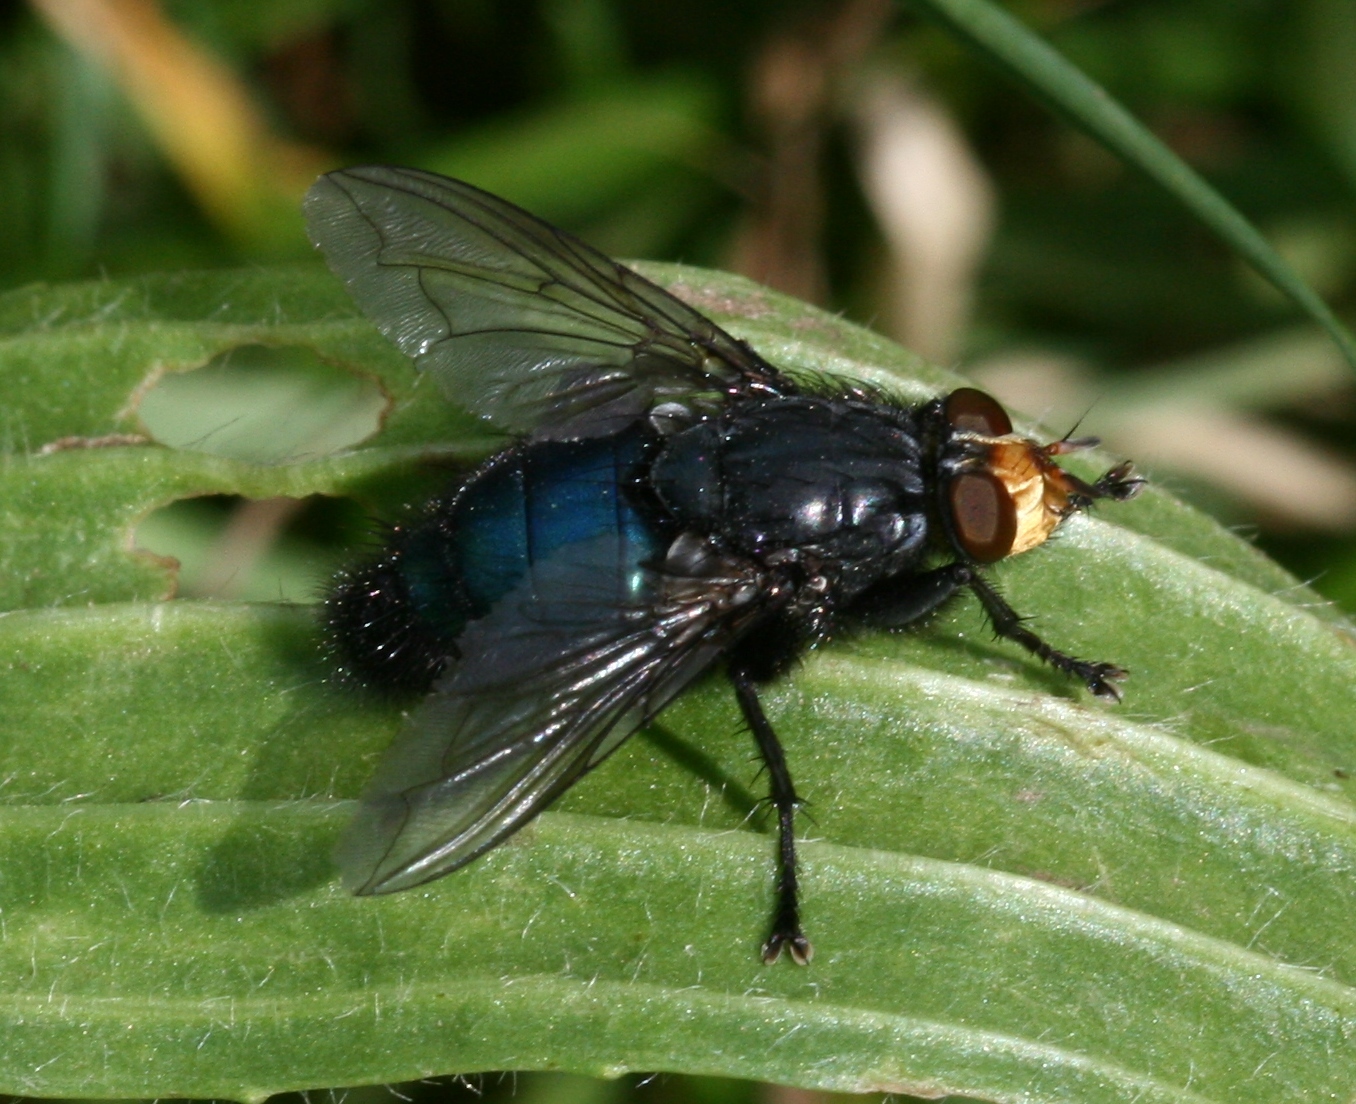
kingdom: Animalia
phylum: Arthropoda
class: Insecta
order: Diptera
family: Calliphoridae
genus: Cynomya
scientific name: Cynomya mortuorum
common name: Bluebottle blow fly
